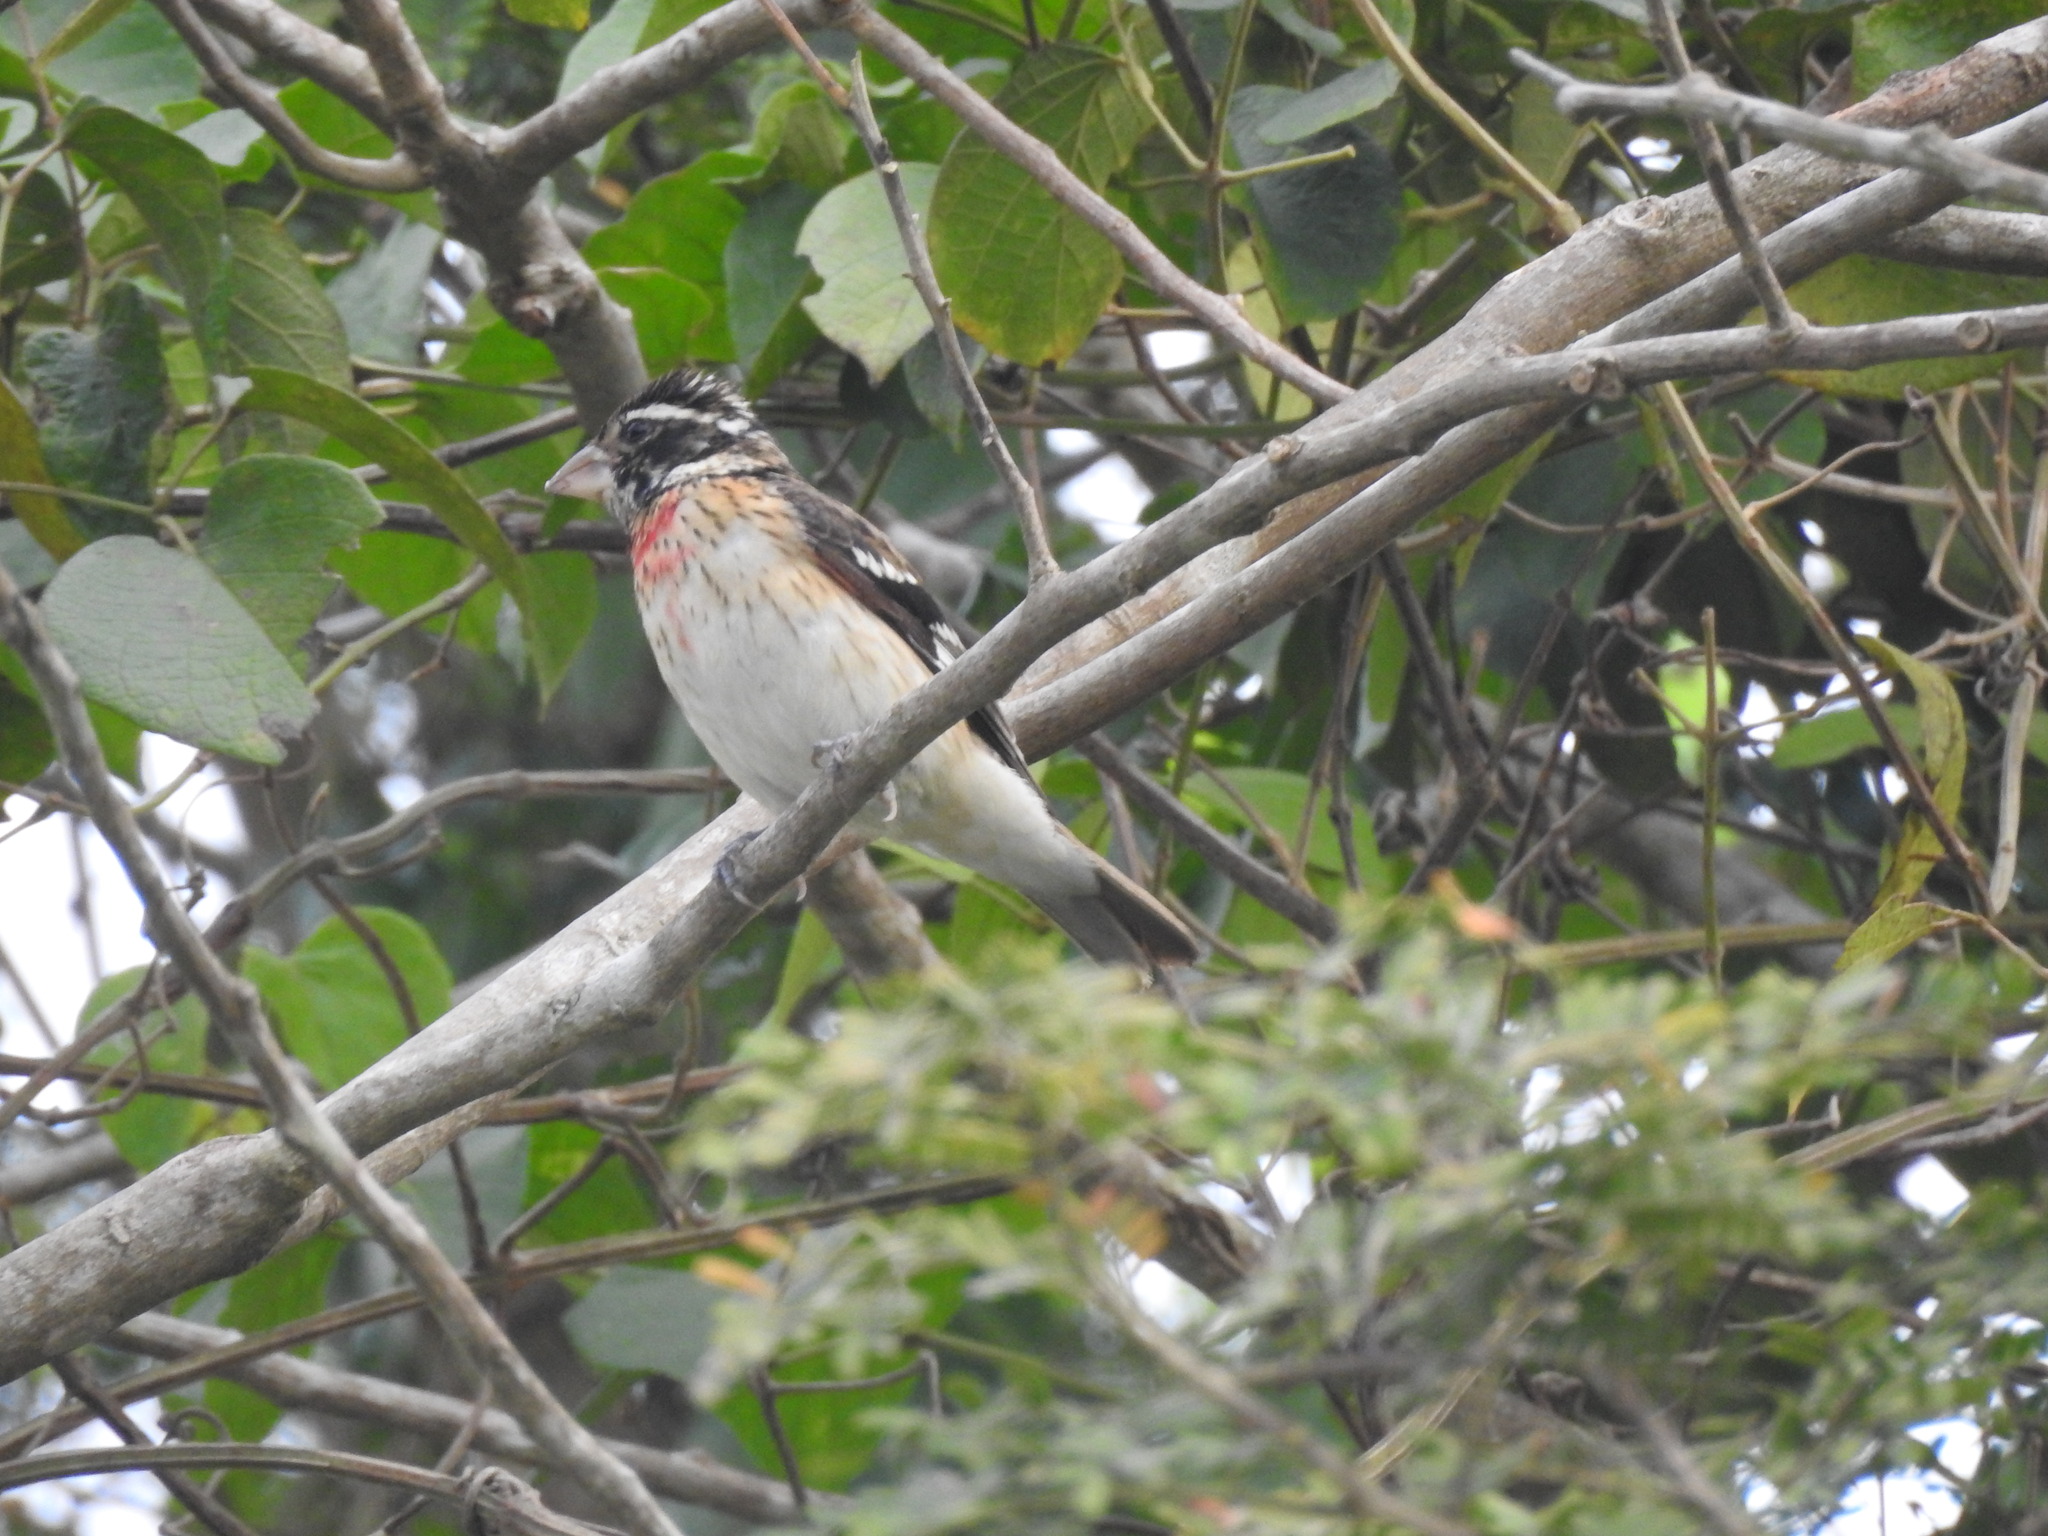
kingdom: Animalia
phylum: Chordata
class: Aves
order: Passeriformes
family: Cardinalidae
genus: Pheucticus
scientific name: Pheucticus ludovicianus
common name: Rose-breasted grosbeak
